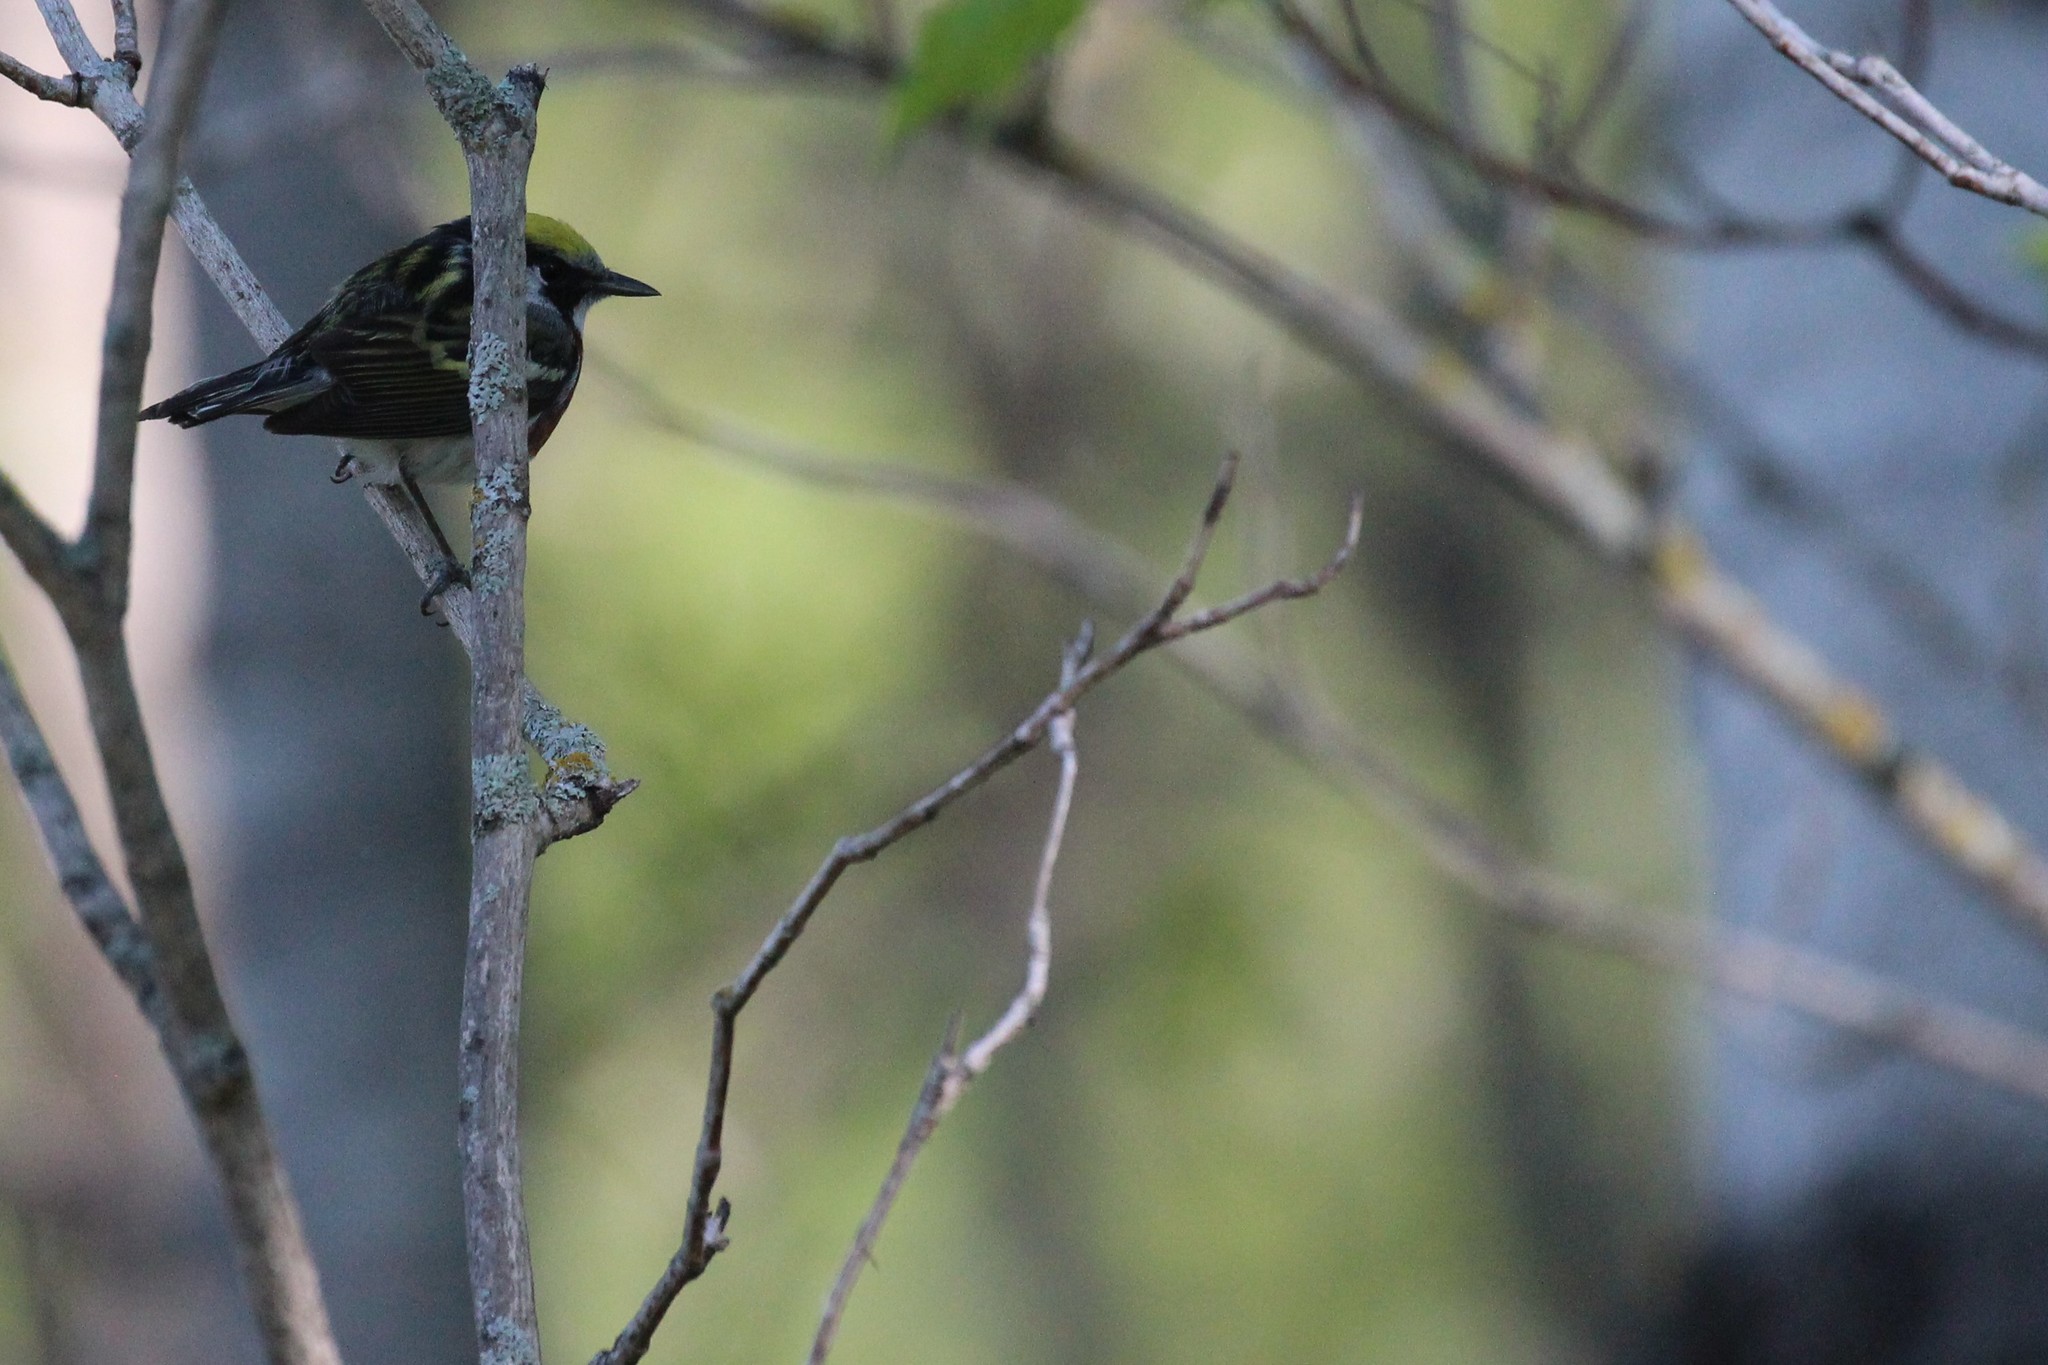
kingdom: Animalia
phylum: Chordata
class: Aves
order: Passeriformes
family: Parulidae
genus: Setophaga
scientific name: Setophaga pensylvanica
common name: Chestnut-sided warbler
